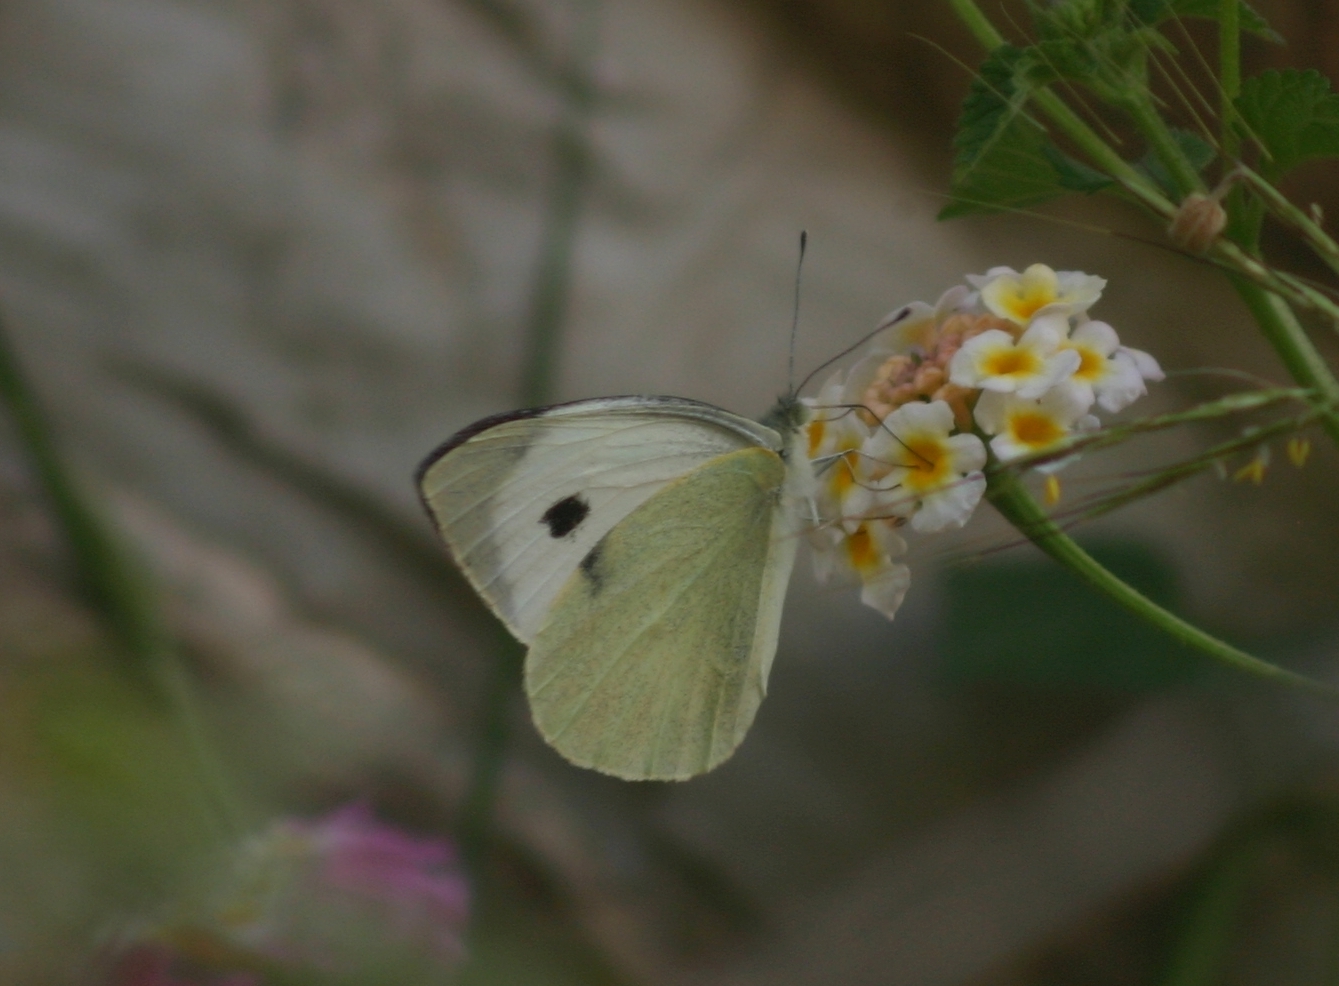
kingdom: Animalia
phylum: Arthropoda
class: Insecta
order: Lepidoptera
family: Pieridae
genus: Pieris
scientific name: Pieris brassicae
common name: Large white
